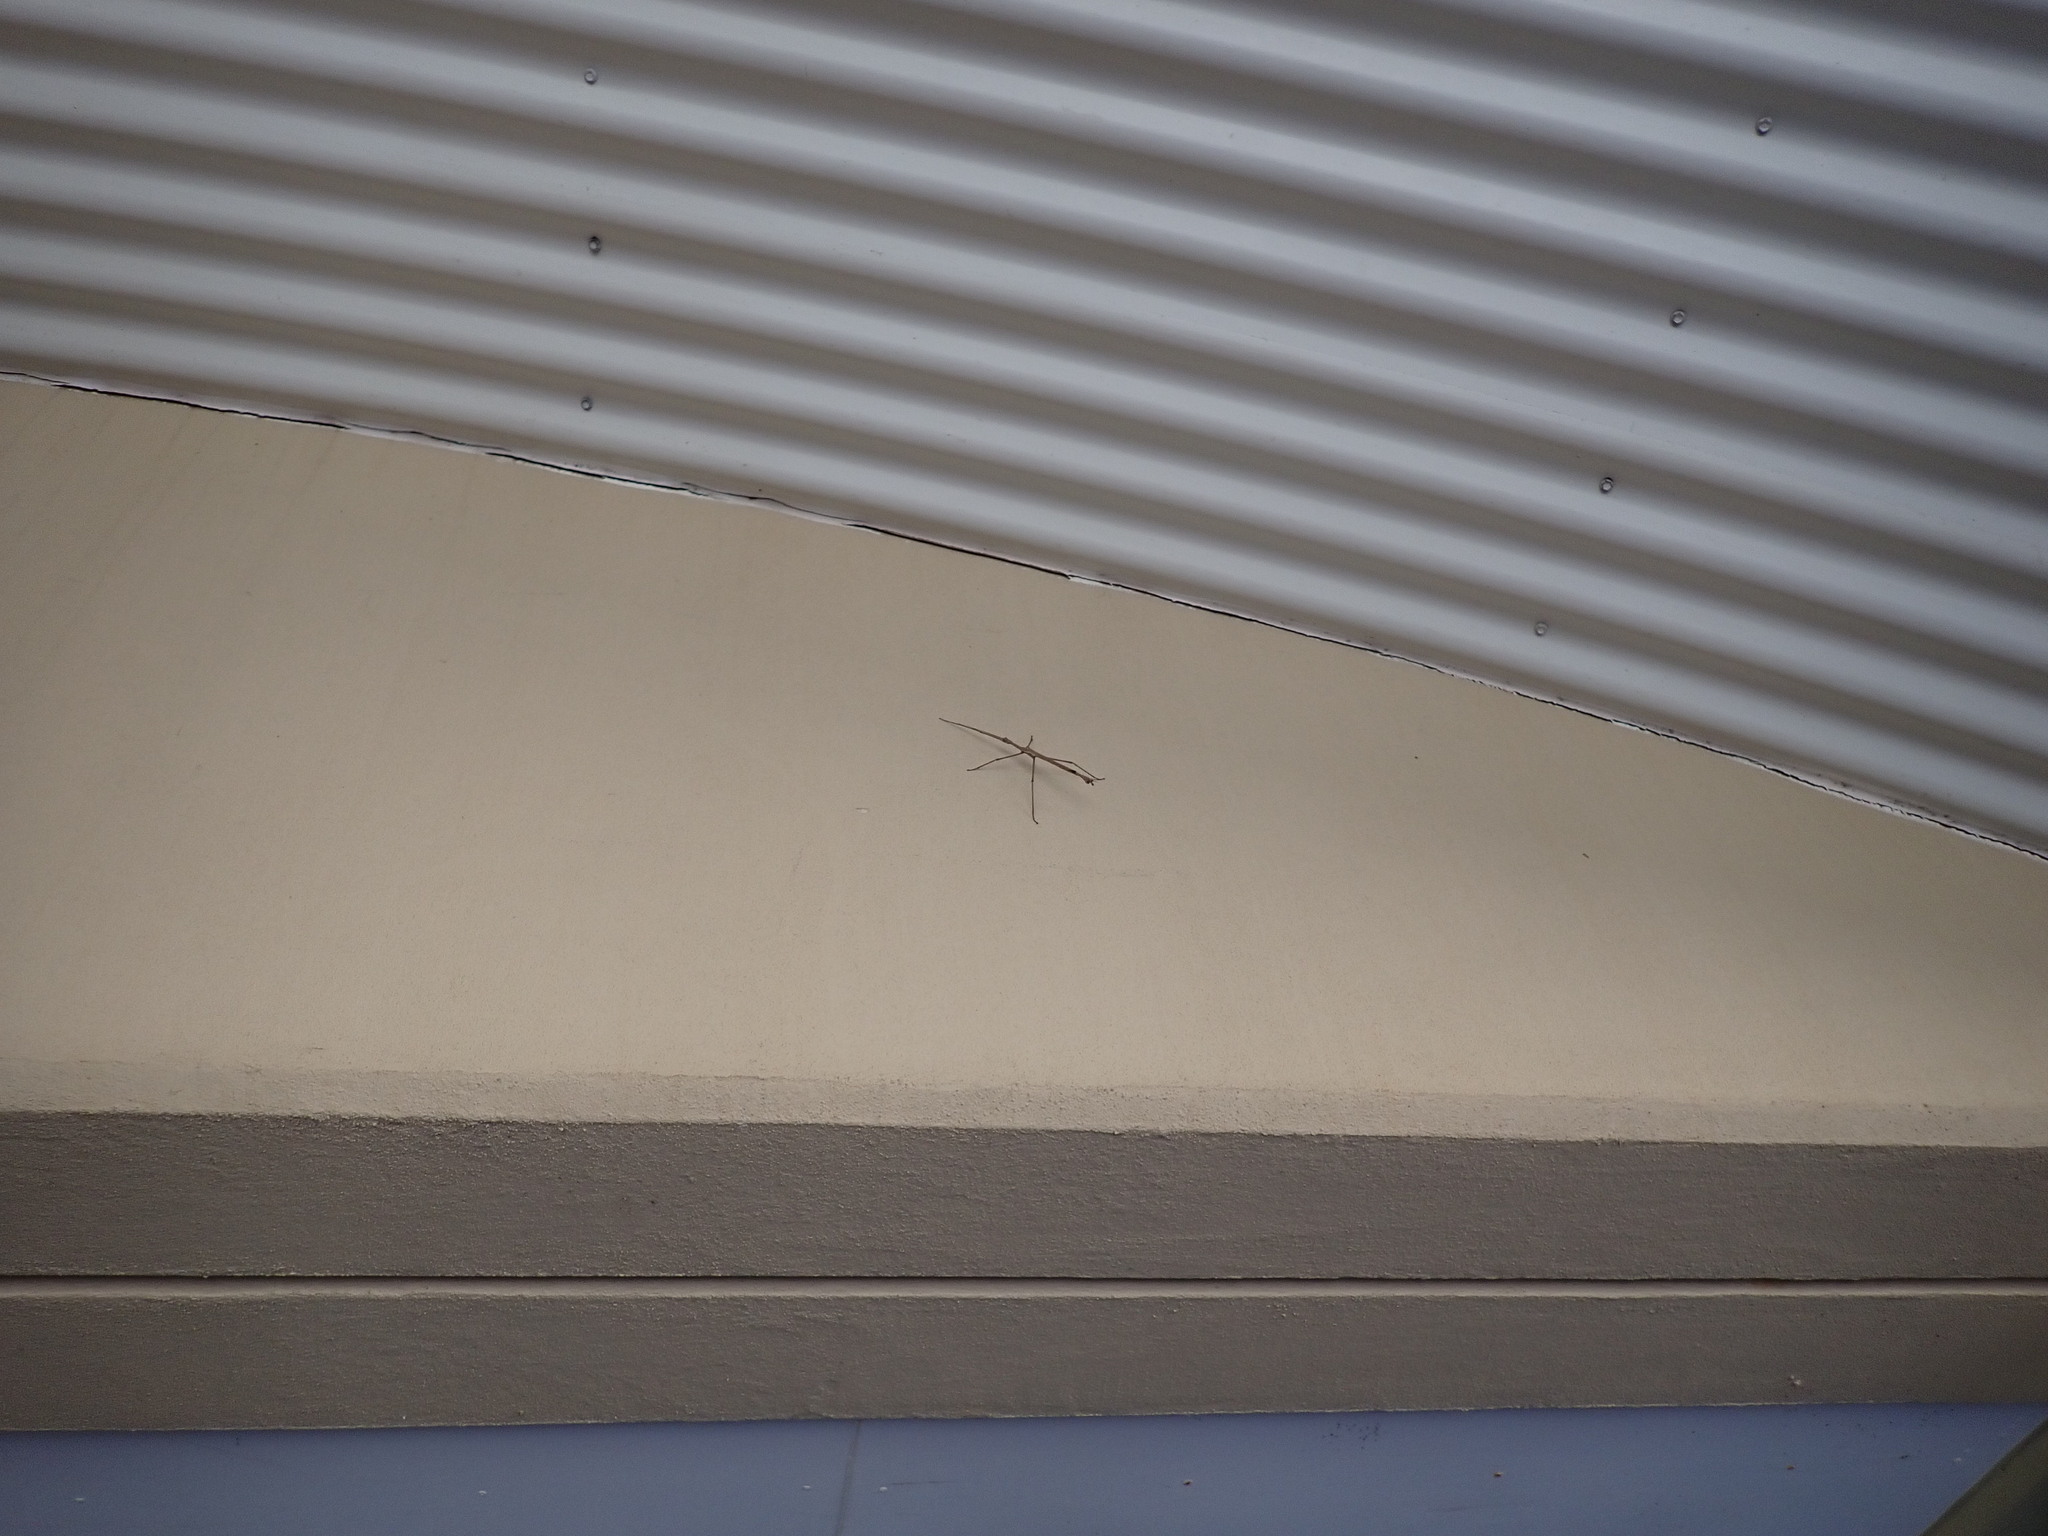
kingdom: Animalia
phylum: Arthropoda
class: Insecta
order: Phasmida
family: Phasmatidae
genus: Anchiale
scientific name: Anchiale briareus
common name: Strong stick insect
